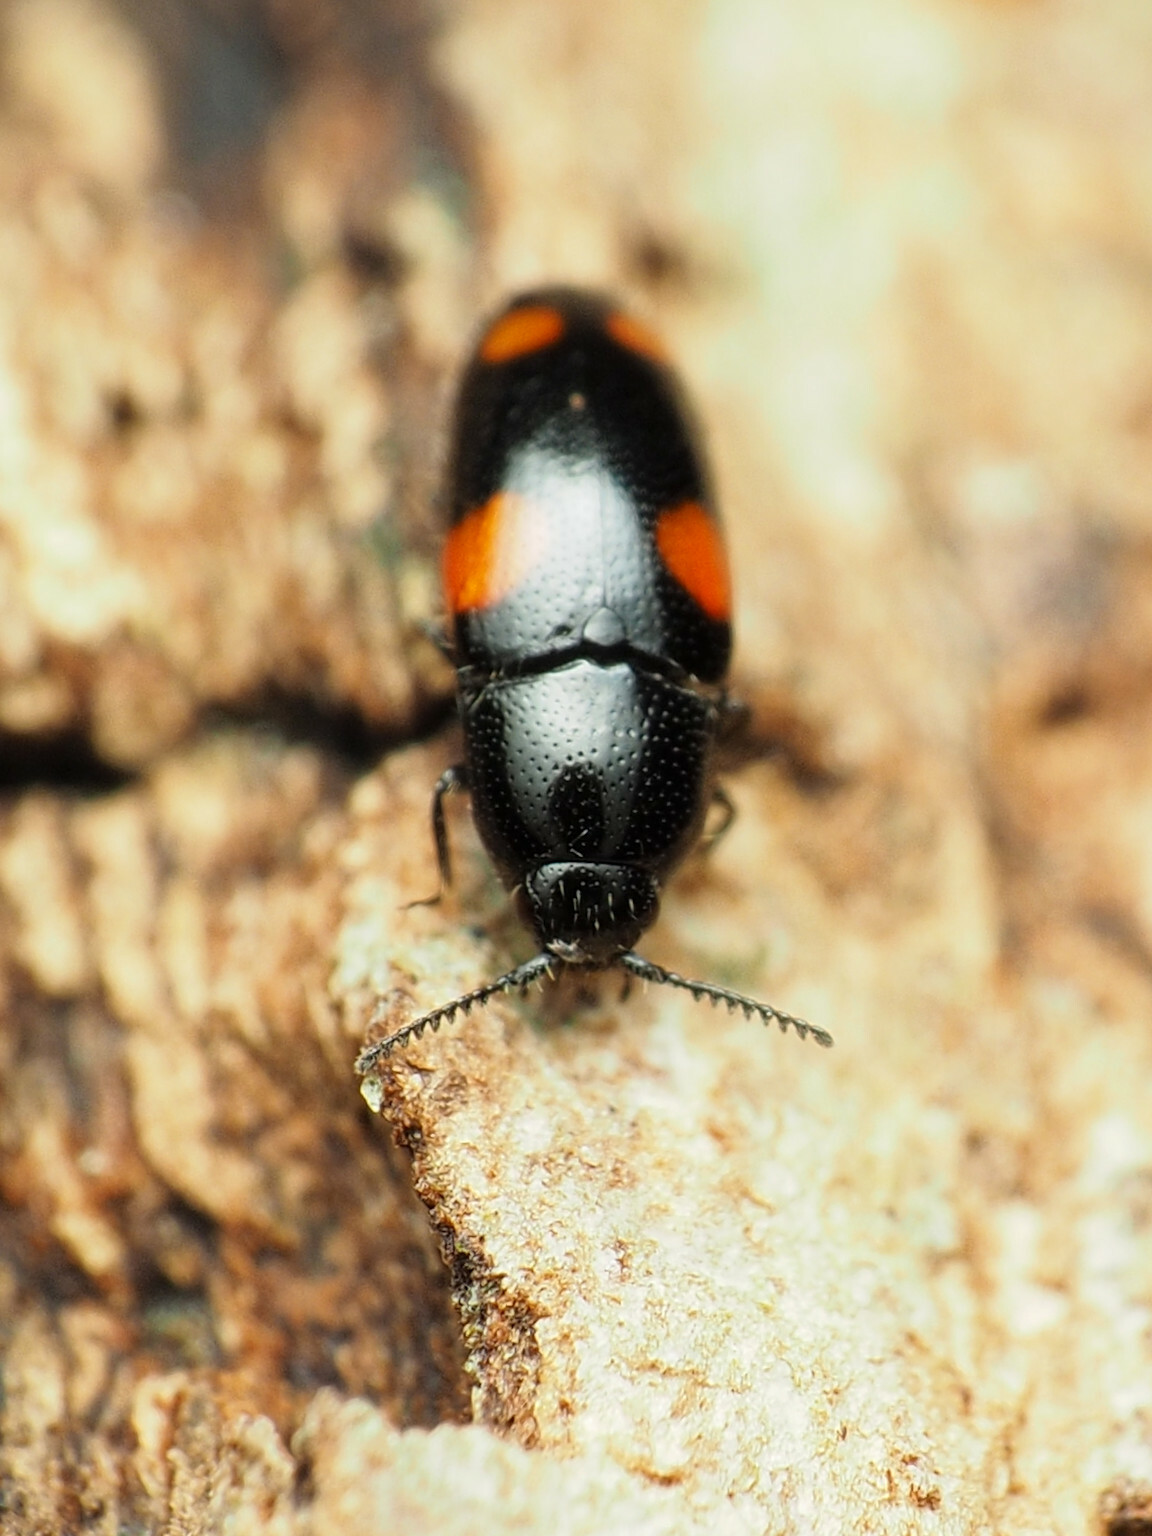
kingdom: Animalia
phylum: Arthropoda
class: Insecta
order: Coleoptera
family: Elateridae
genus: Drapetes
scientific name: Drapetes
